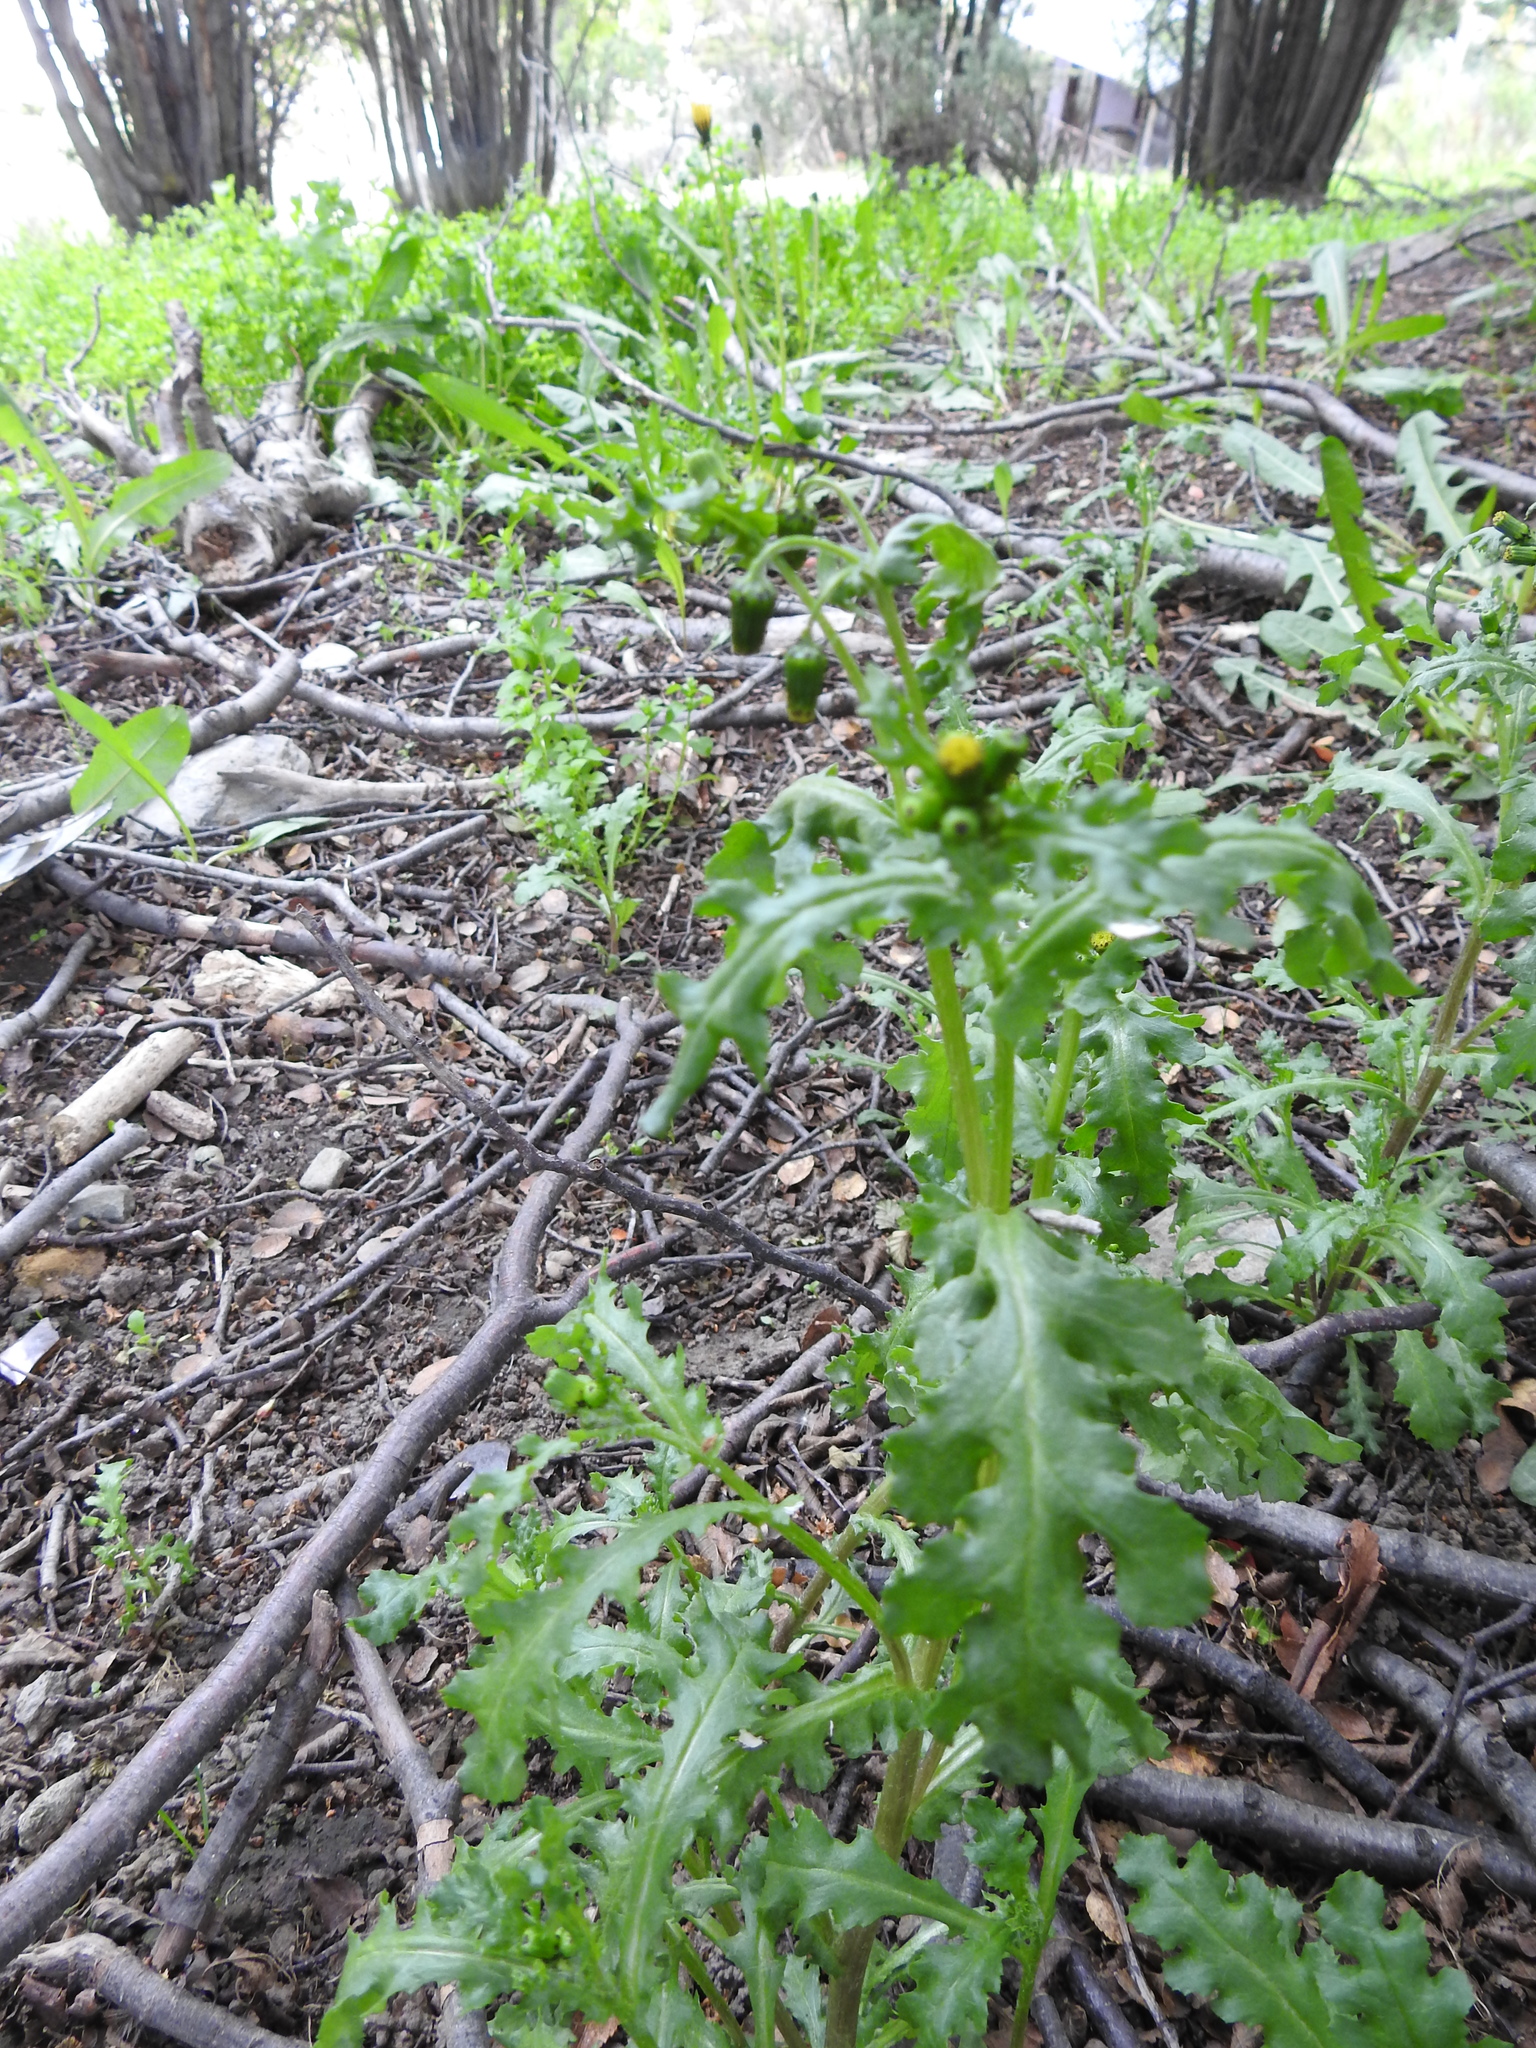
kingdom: Plantae
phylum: Tracheophyta
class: Magnoliopsida
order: Asterales
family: Asteraceae
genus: Senecio
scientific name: Senecio vulgaris
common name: Old-man-in-the-spring
